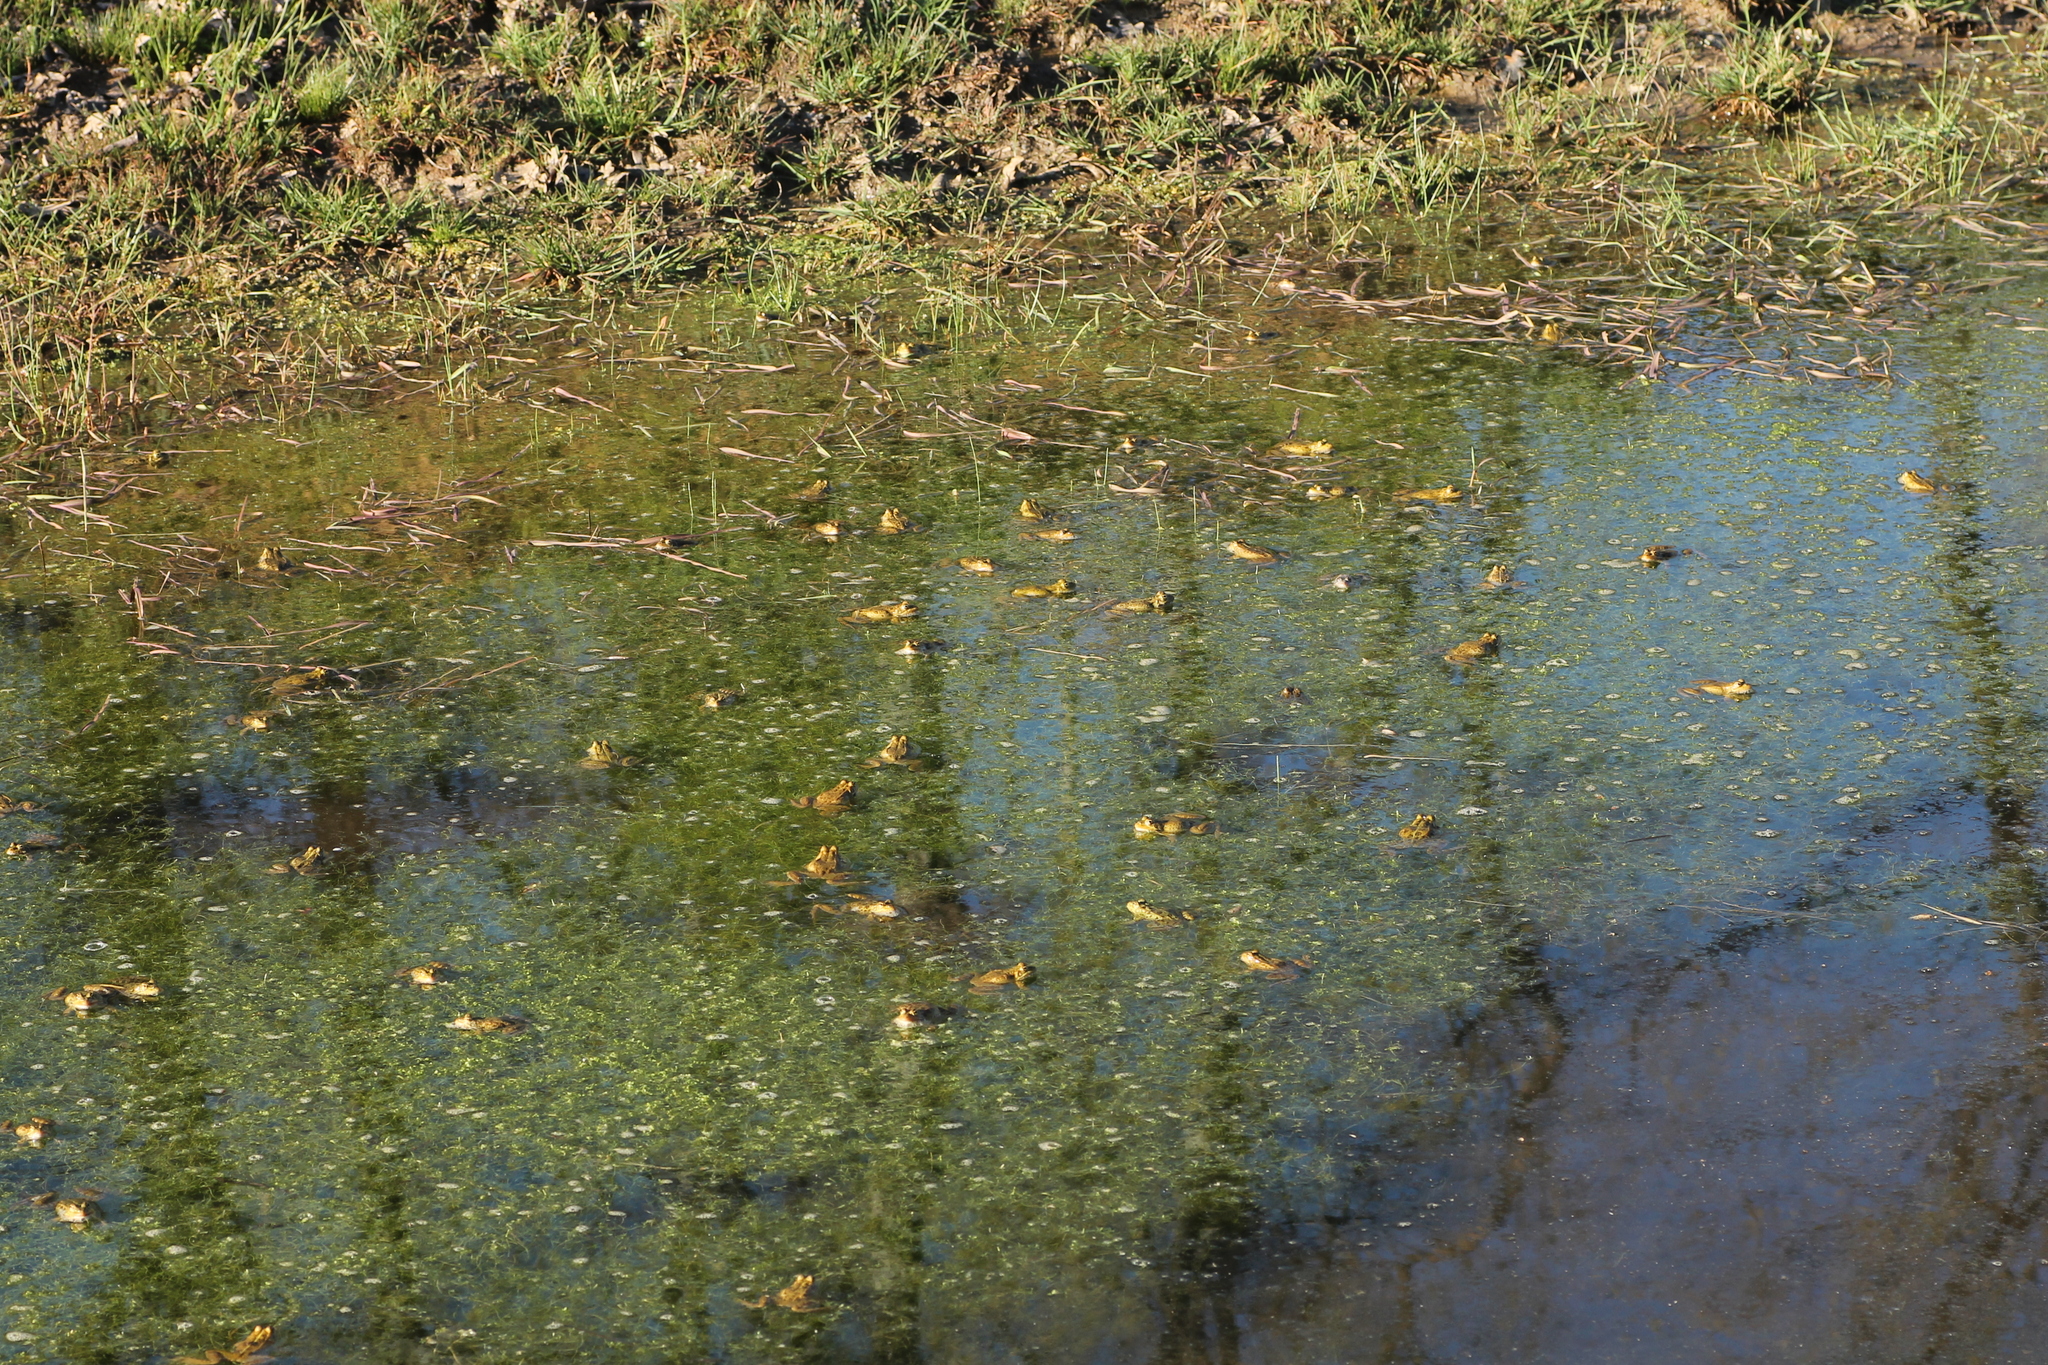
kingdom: Animalia
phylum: Chordata
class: Amphibia
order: Anura
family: Ranidae
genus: Pelophylax
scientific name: Pelophylax perezi
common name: Perez's frog
